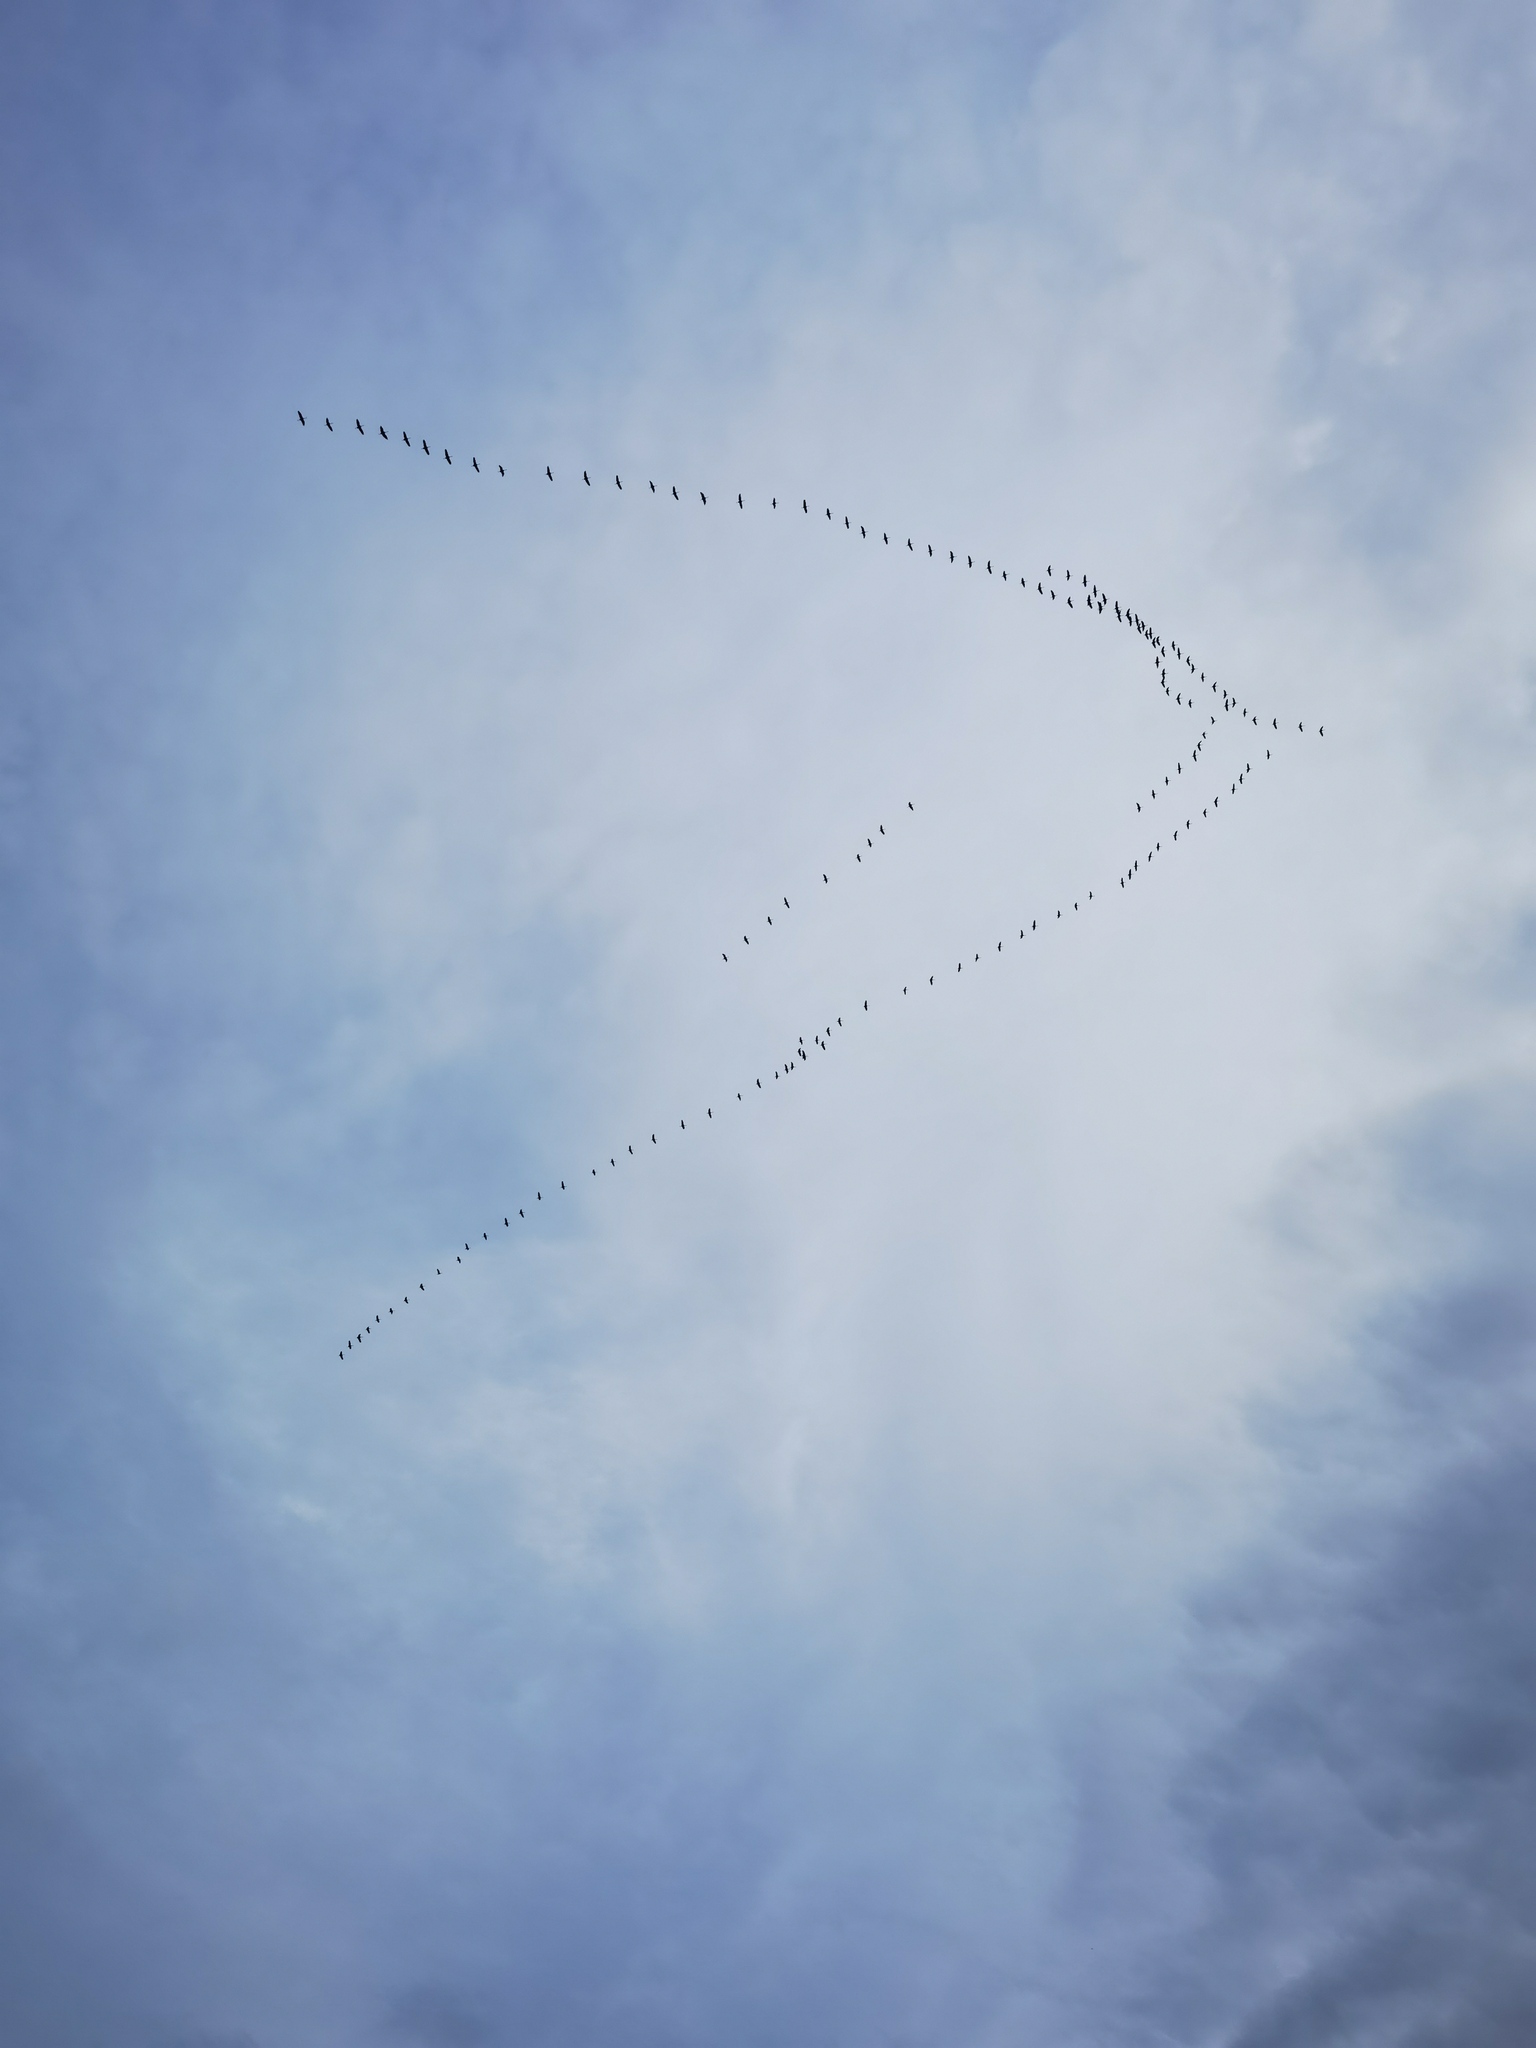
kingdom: Animalia
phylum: Chordata
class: Aves
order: Gruiformes
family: Gruidae
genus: Grus
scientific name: Grus grus
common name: Common crane
